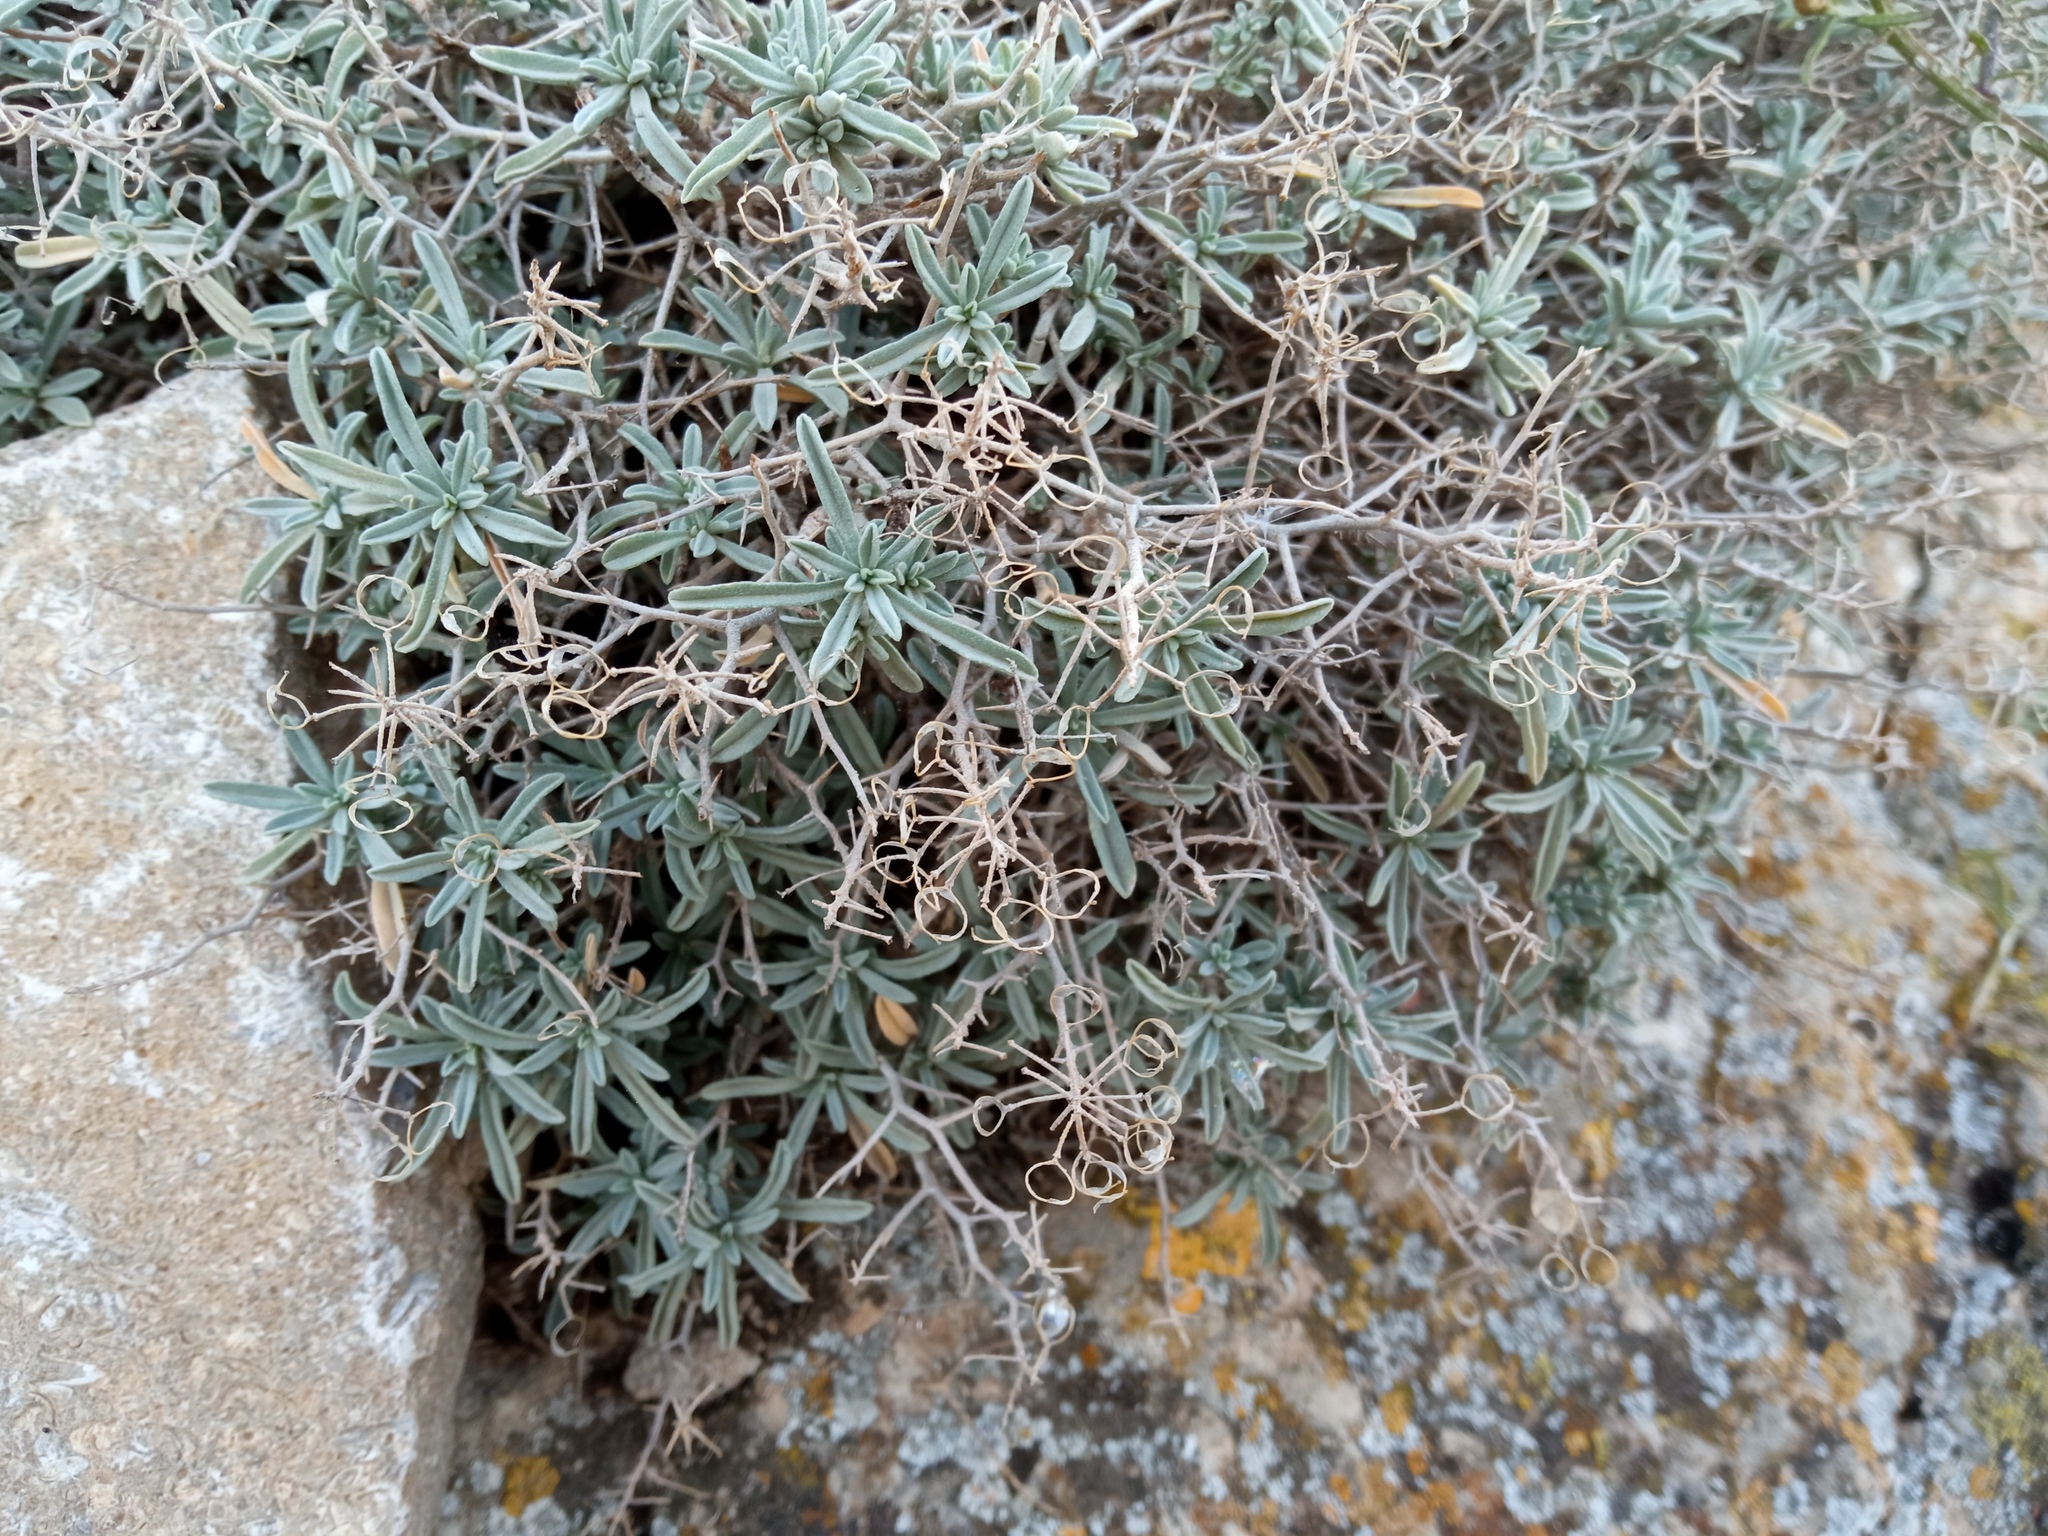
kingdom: Plantae
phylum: Tracheophyta
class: Magnoliopsida
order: Brassicales
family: Brassicaceae
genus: Hormathophylla
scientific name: Hormathophylla spinosa
